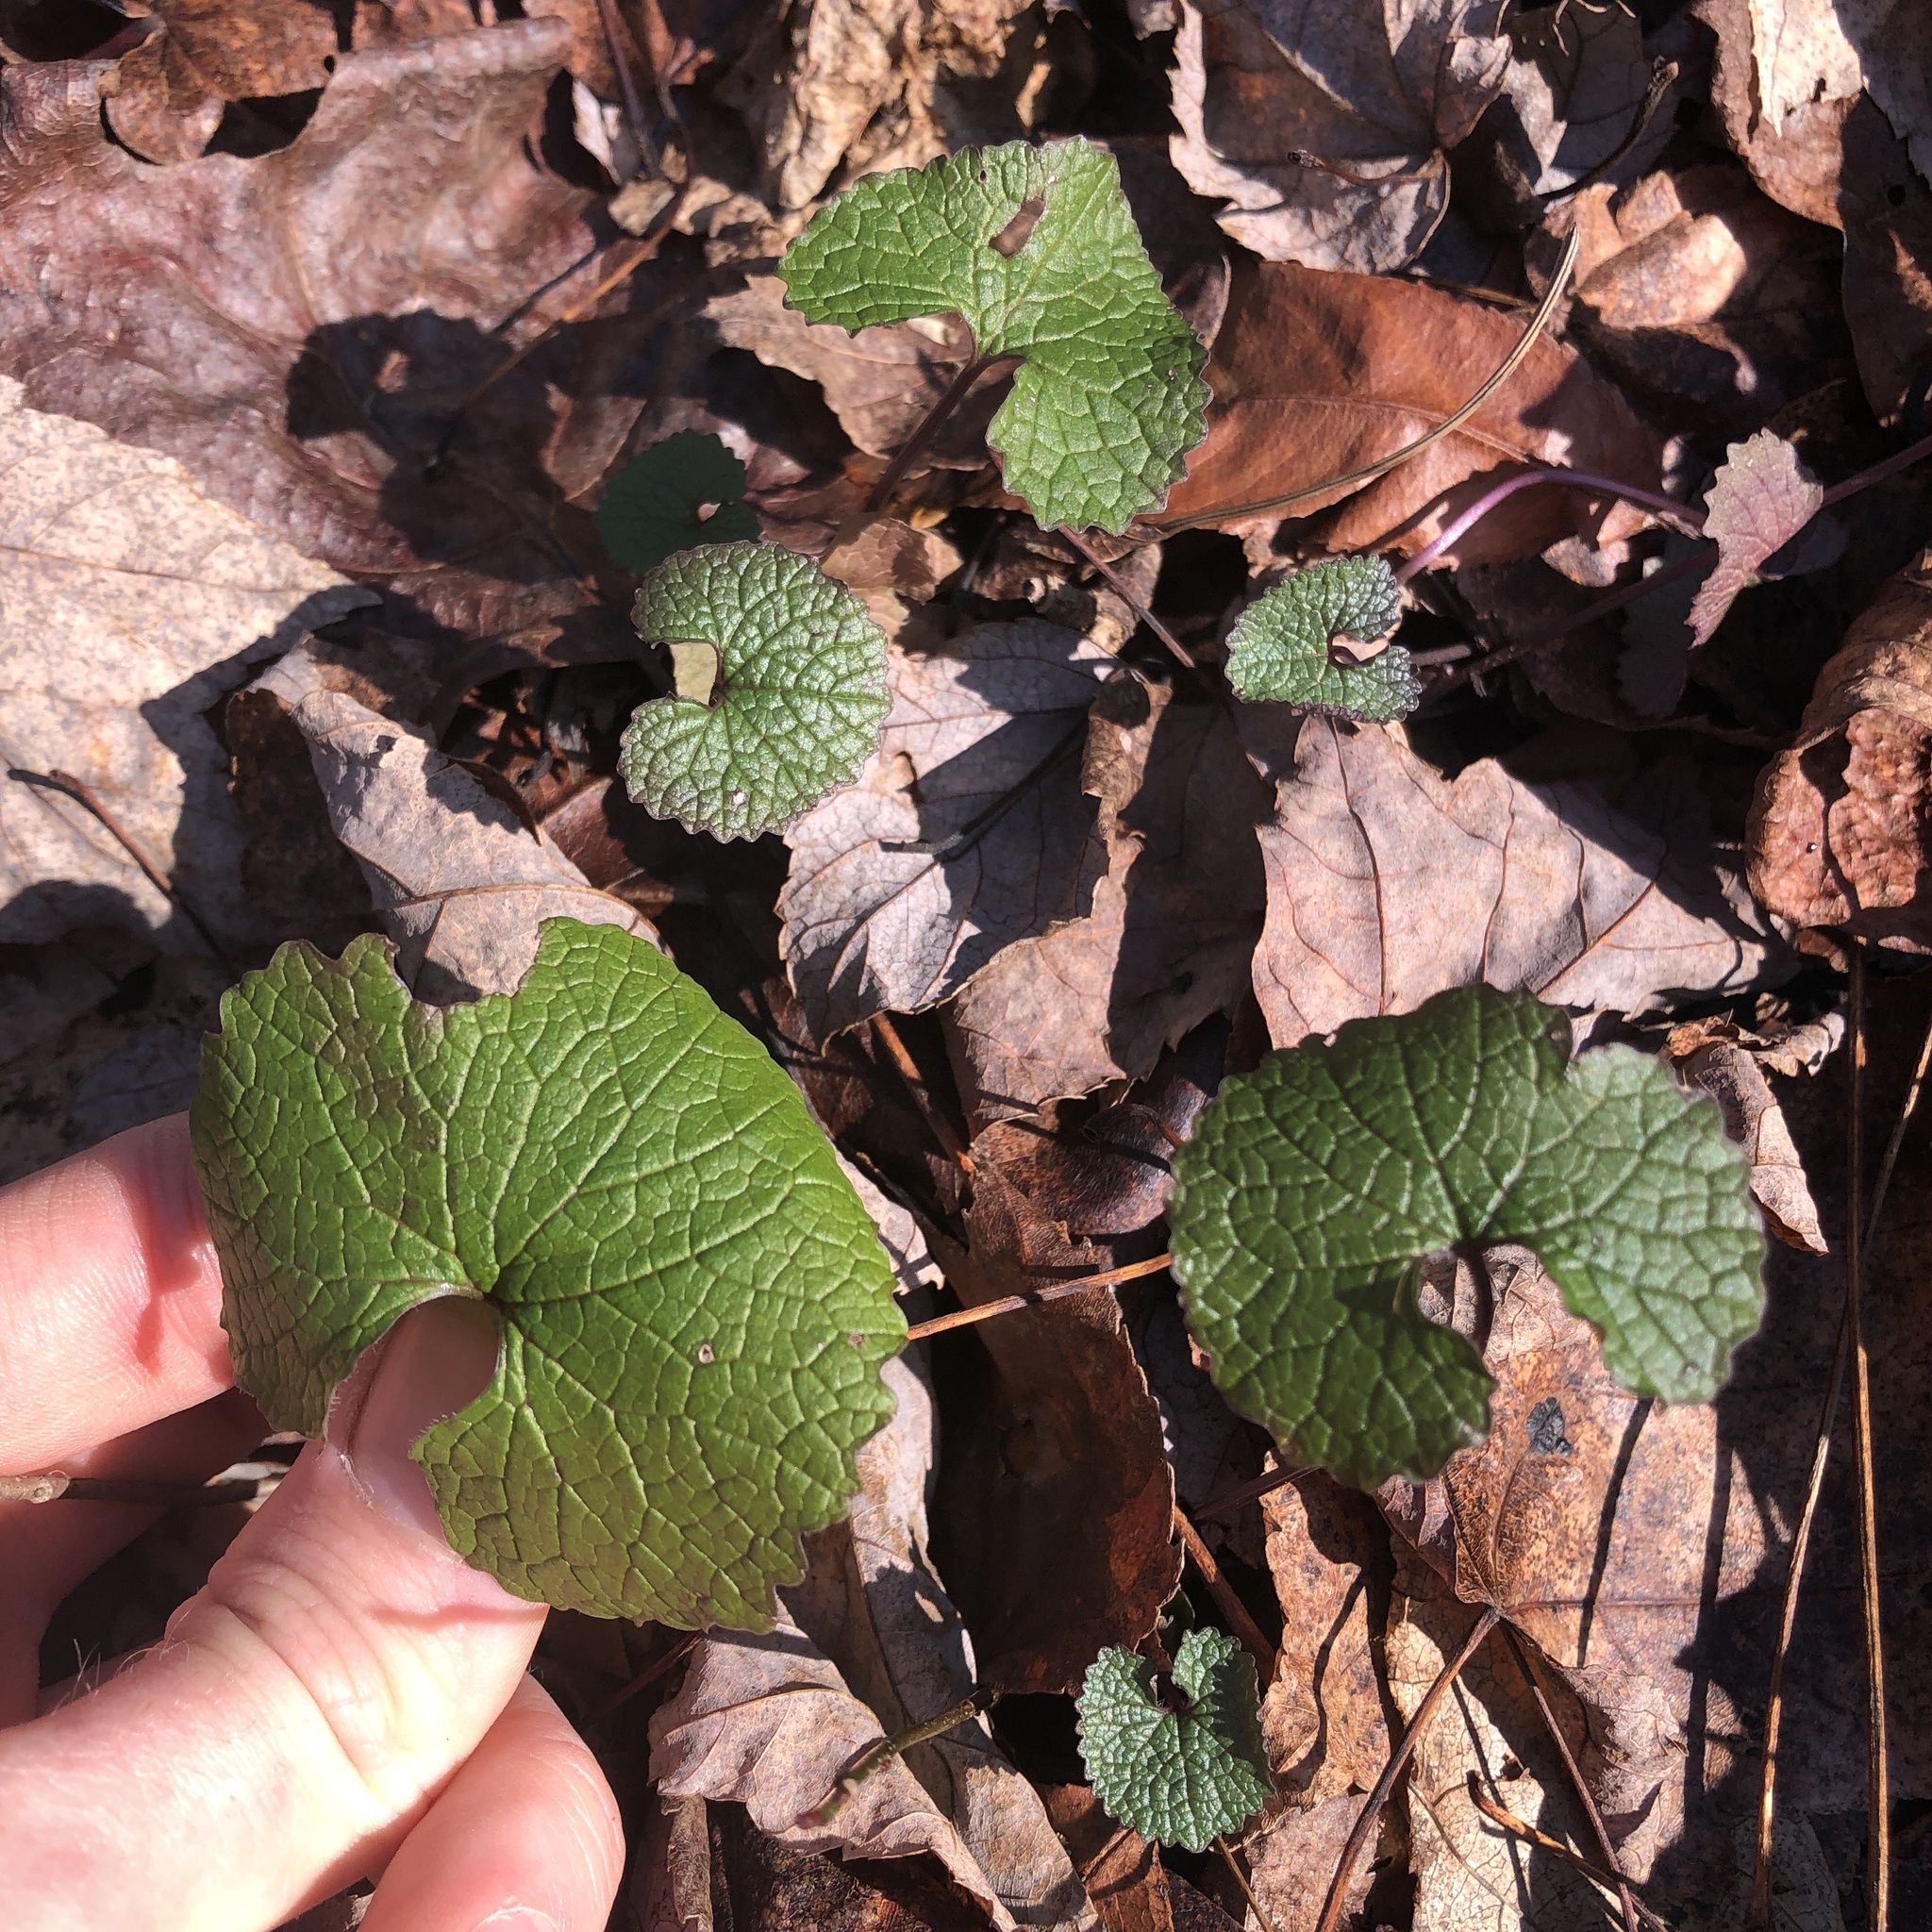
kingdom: Plantae
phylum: Tracheophyta
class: Magnoliopsida
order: Brassicales
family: Brassicaceae
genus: Alliaria
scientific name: Alliaria petiolata
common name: Garlic mustard
